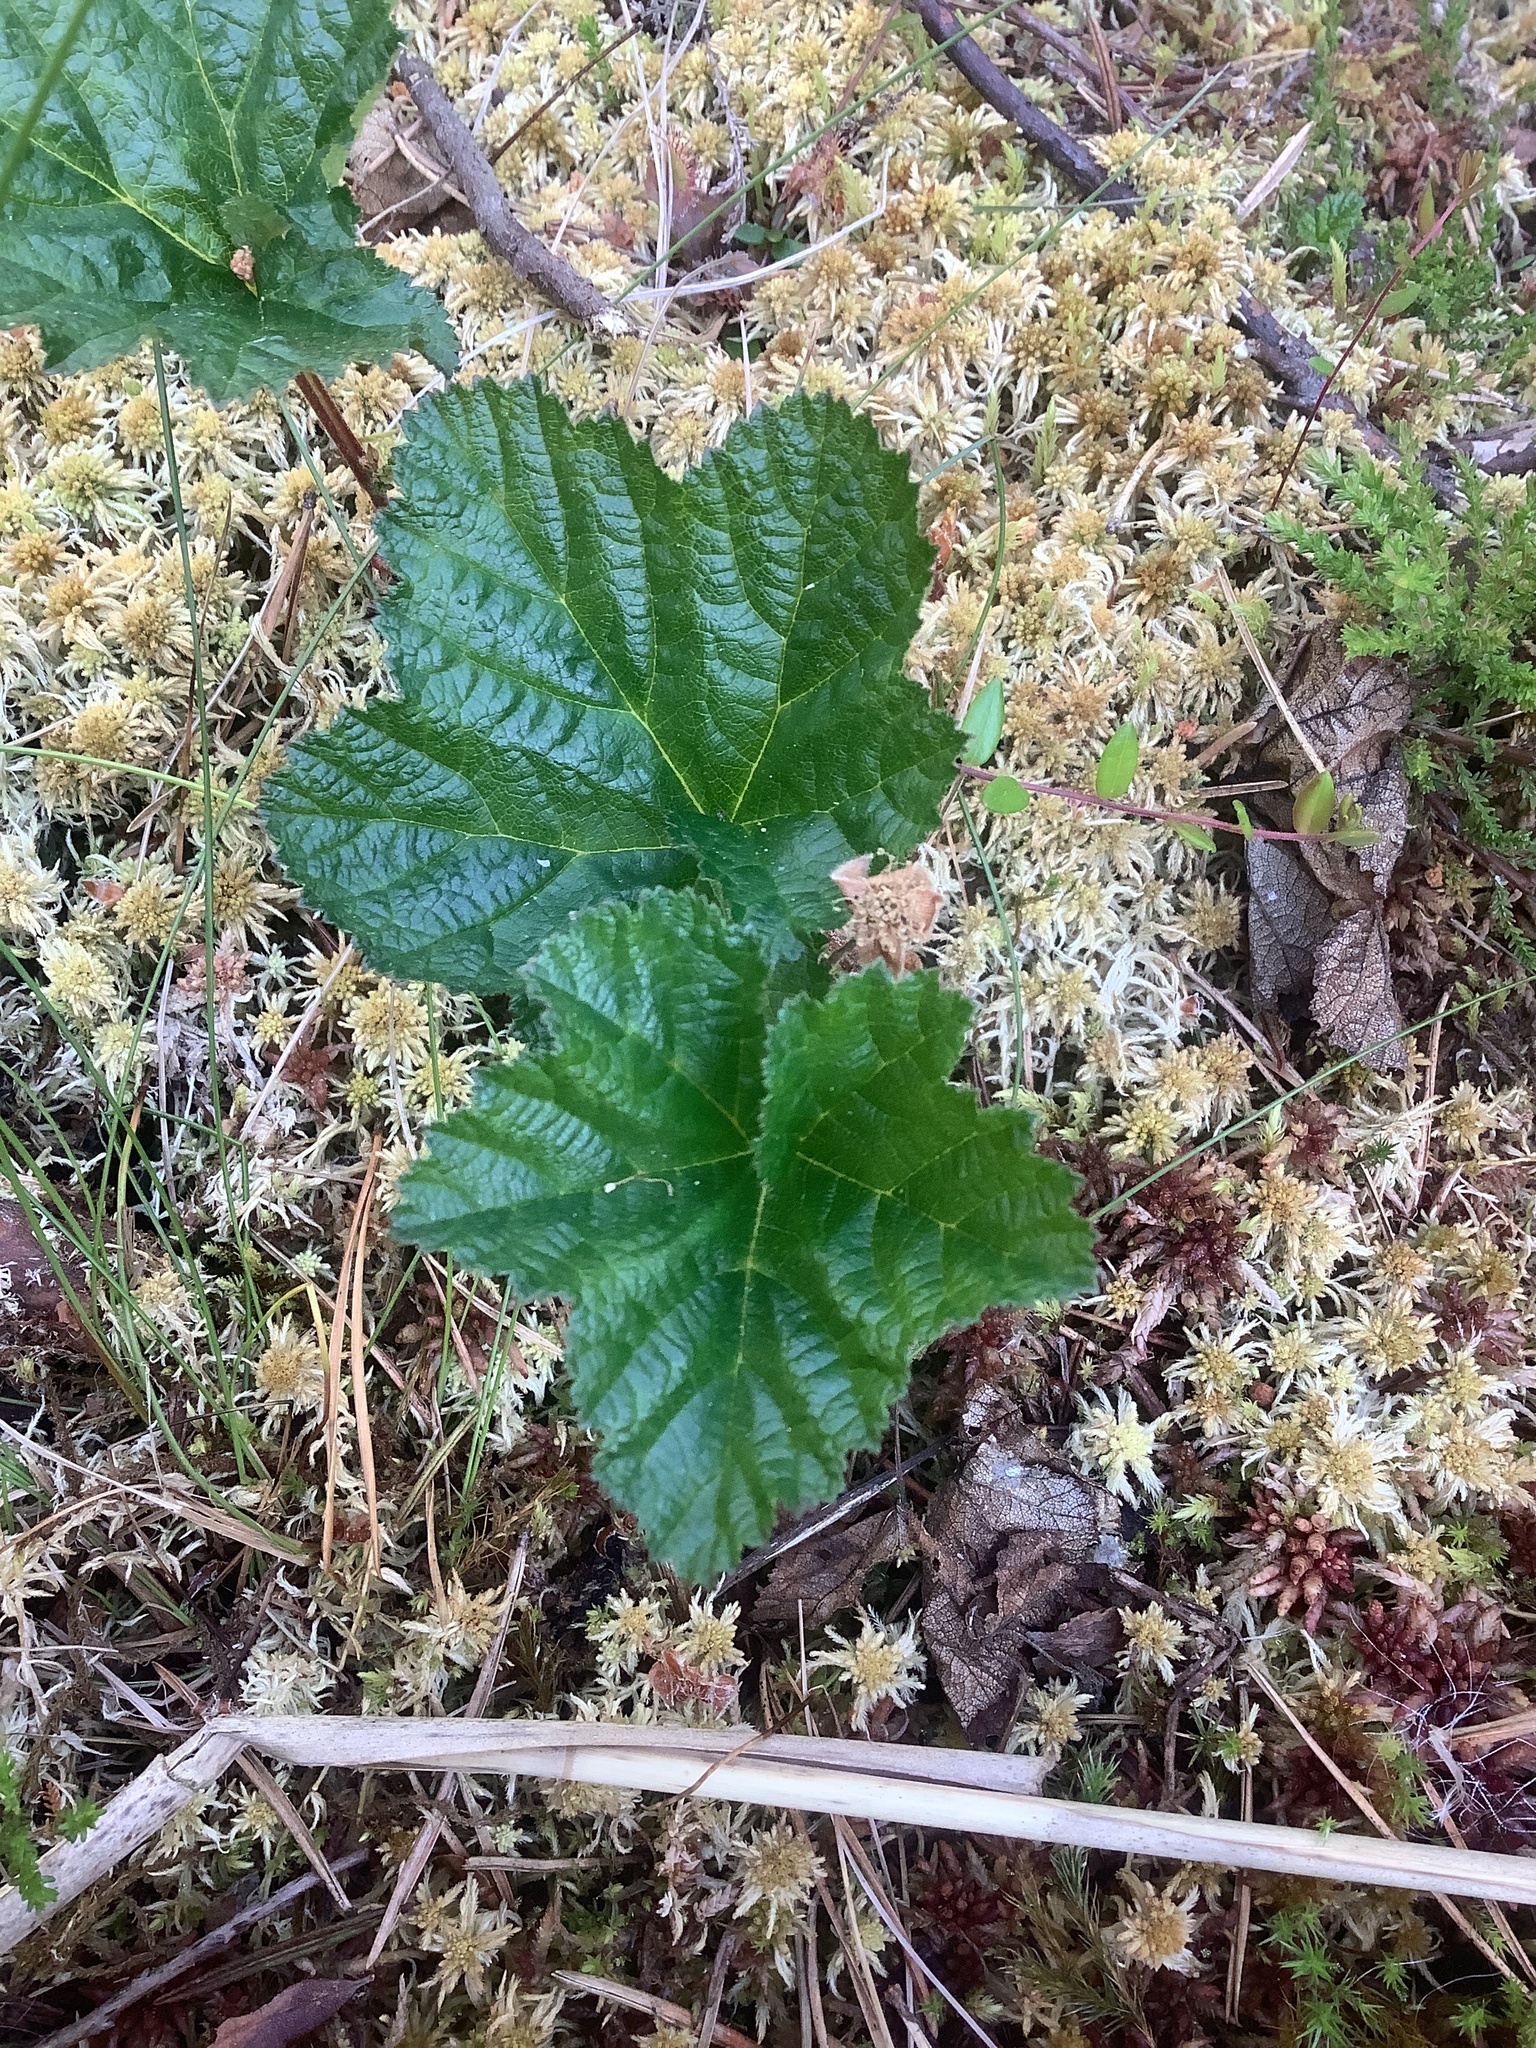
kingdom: Plantae
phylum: Tracheophyta
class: Magnoliopsida
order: Rosales
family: Rosaceae
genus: Rubus
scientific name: Rubus chamaemorus
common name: Cloudberry
